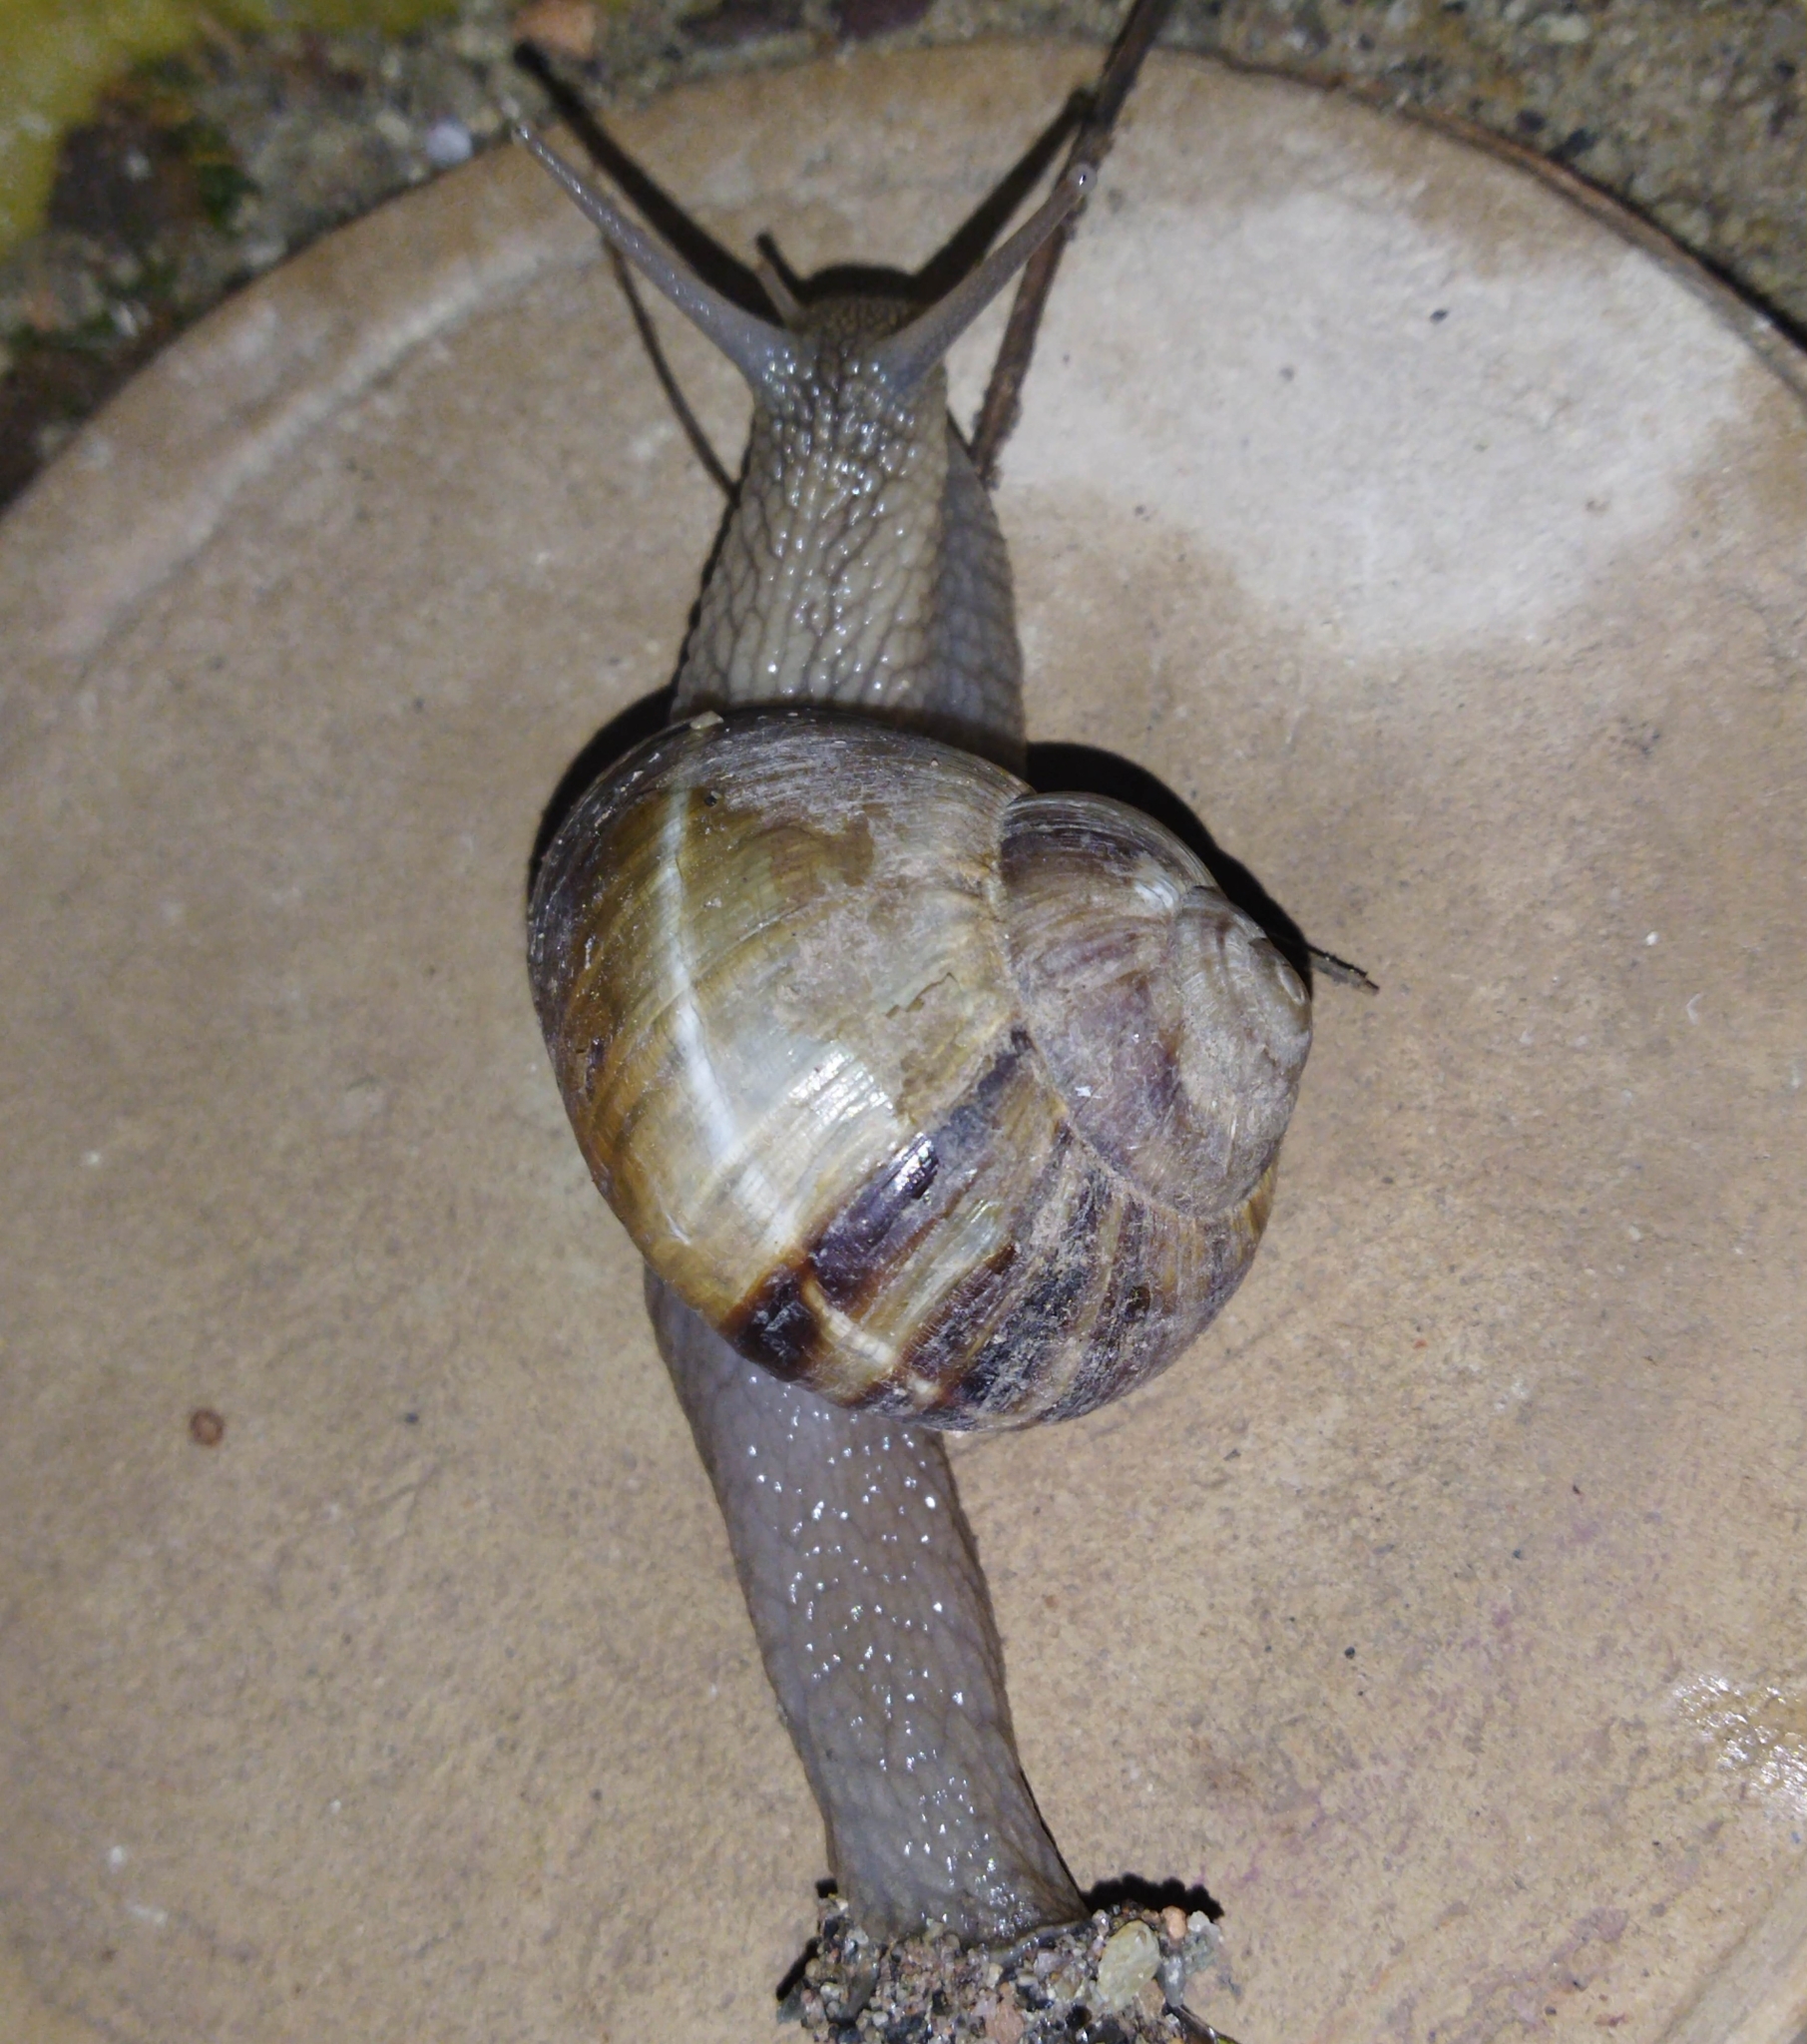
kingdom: Animalia
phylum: Mollusca
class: Gastropoda
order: Stylommatophora
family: Helicidae
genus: Helix
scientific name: Helix lucorum
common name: Turkish snail
